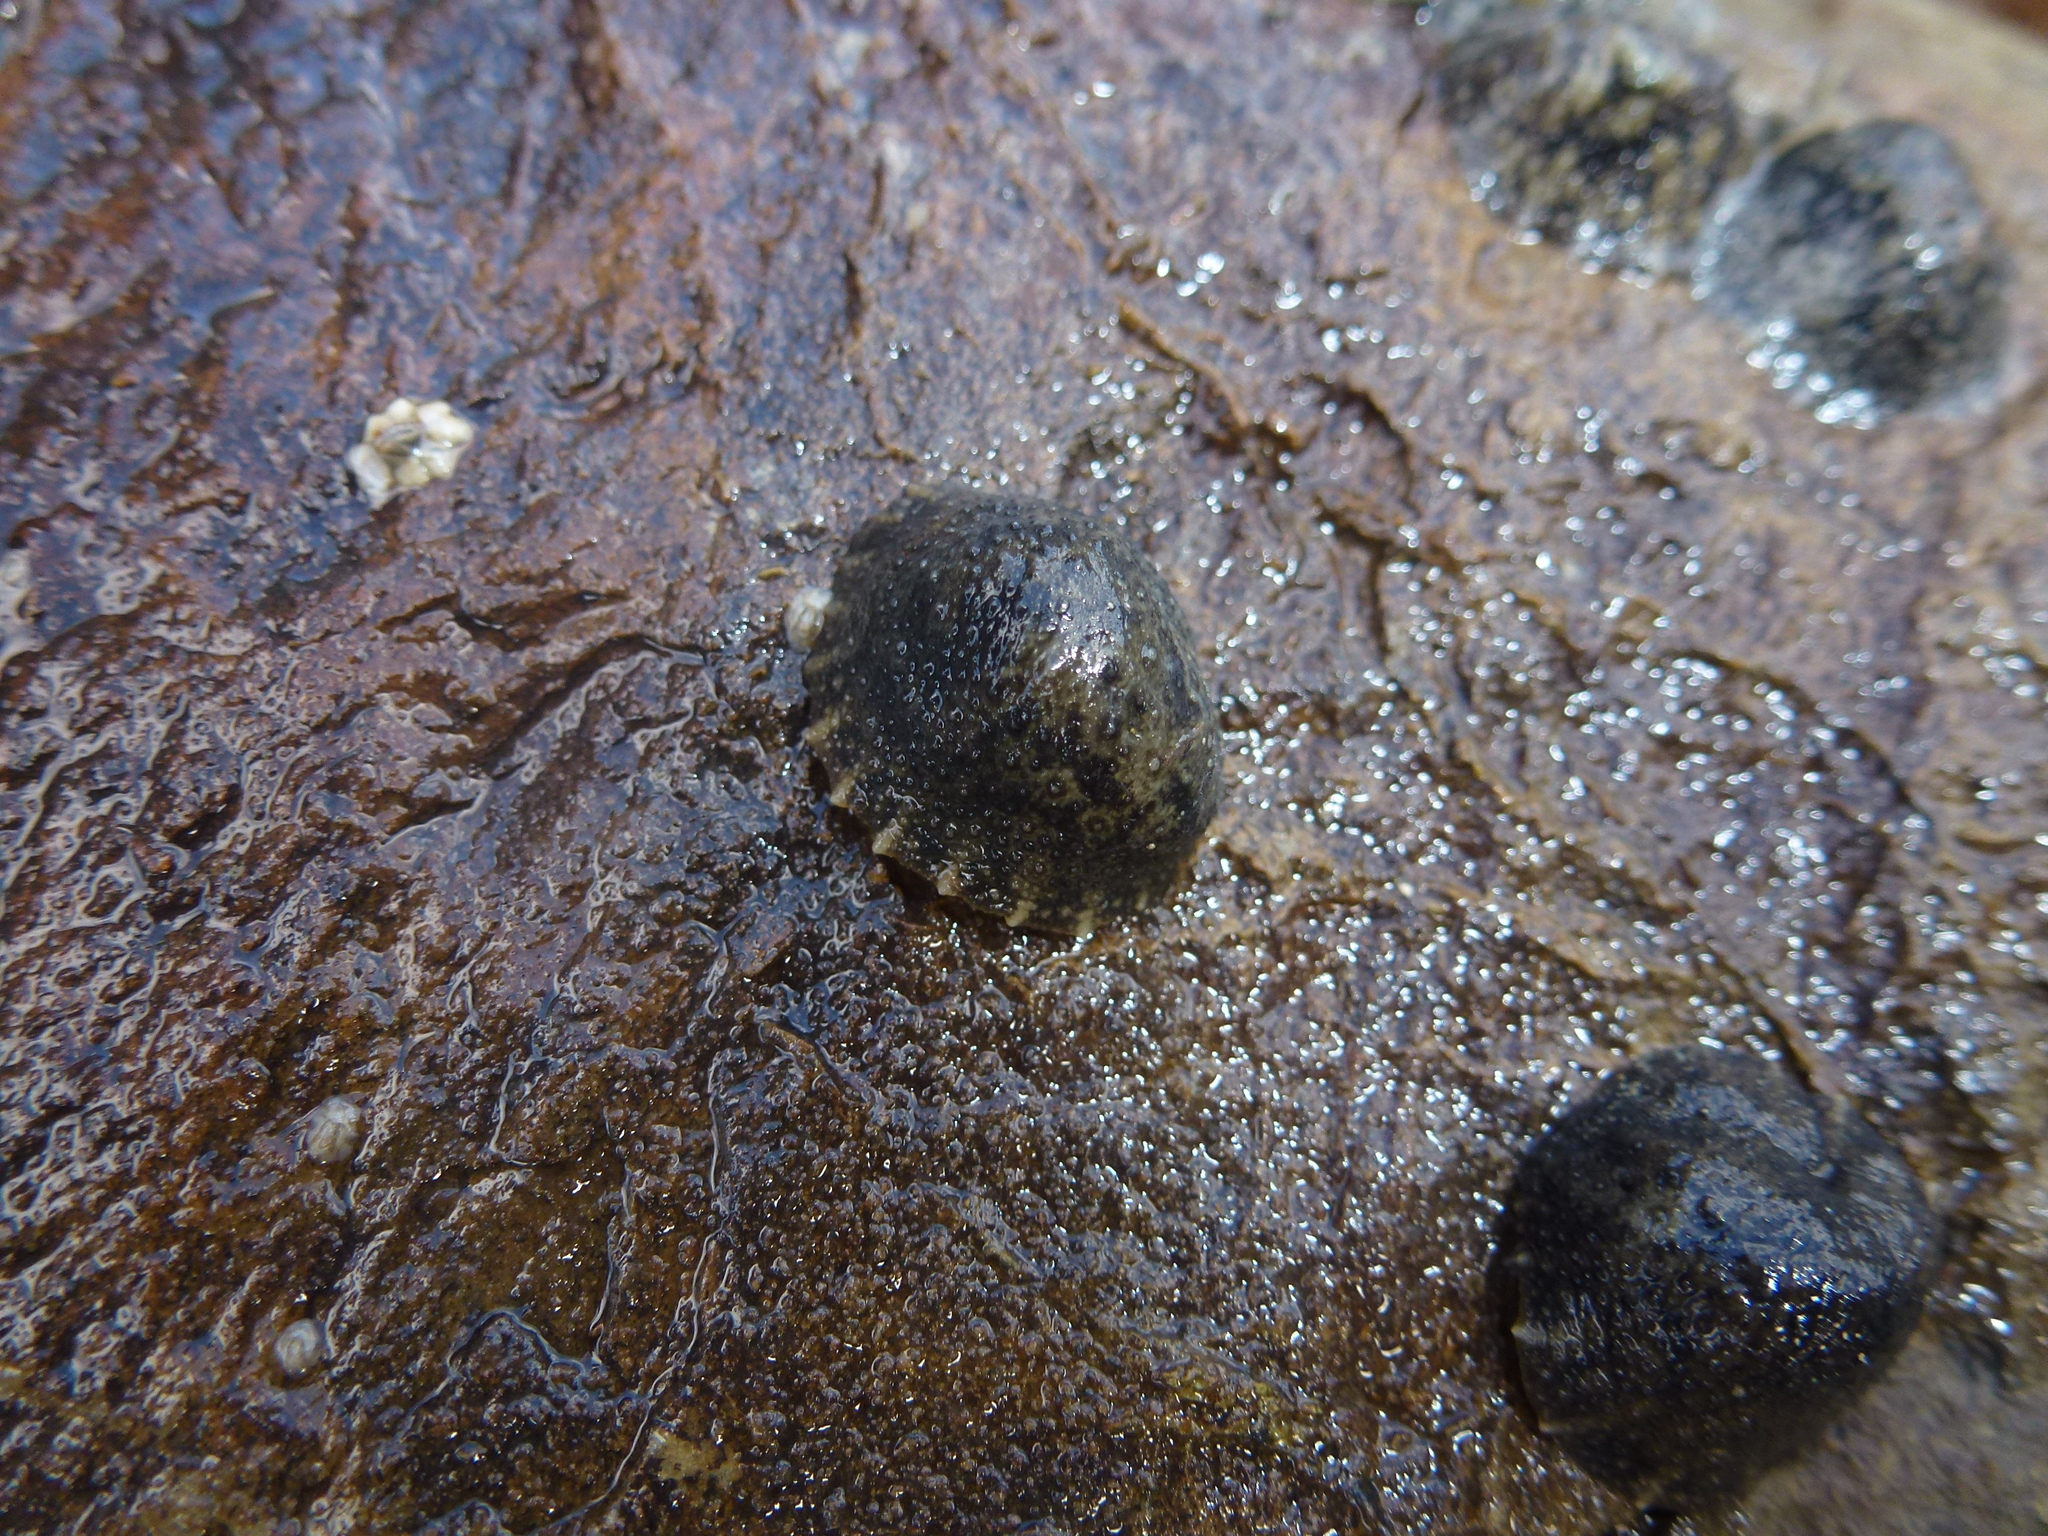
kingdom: Animalia
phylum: Mollusca
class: Gastropoda
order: Systellommatophora
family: Onchidiidae
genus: Onchidella
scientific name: Onchidella nigricans
